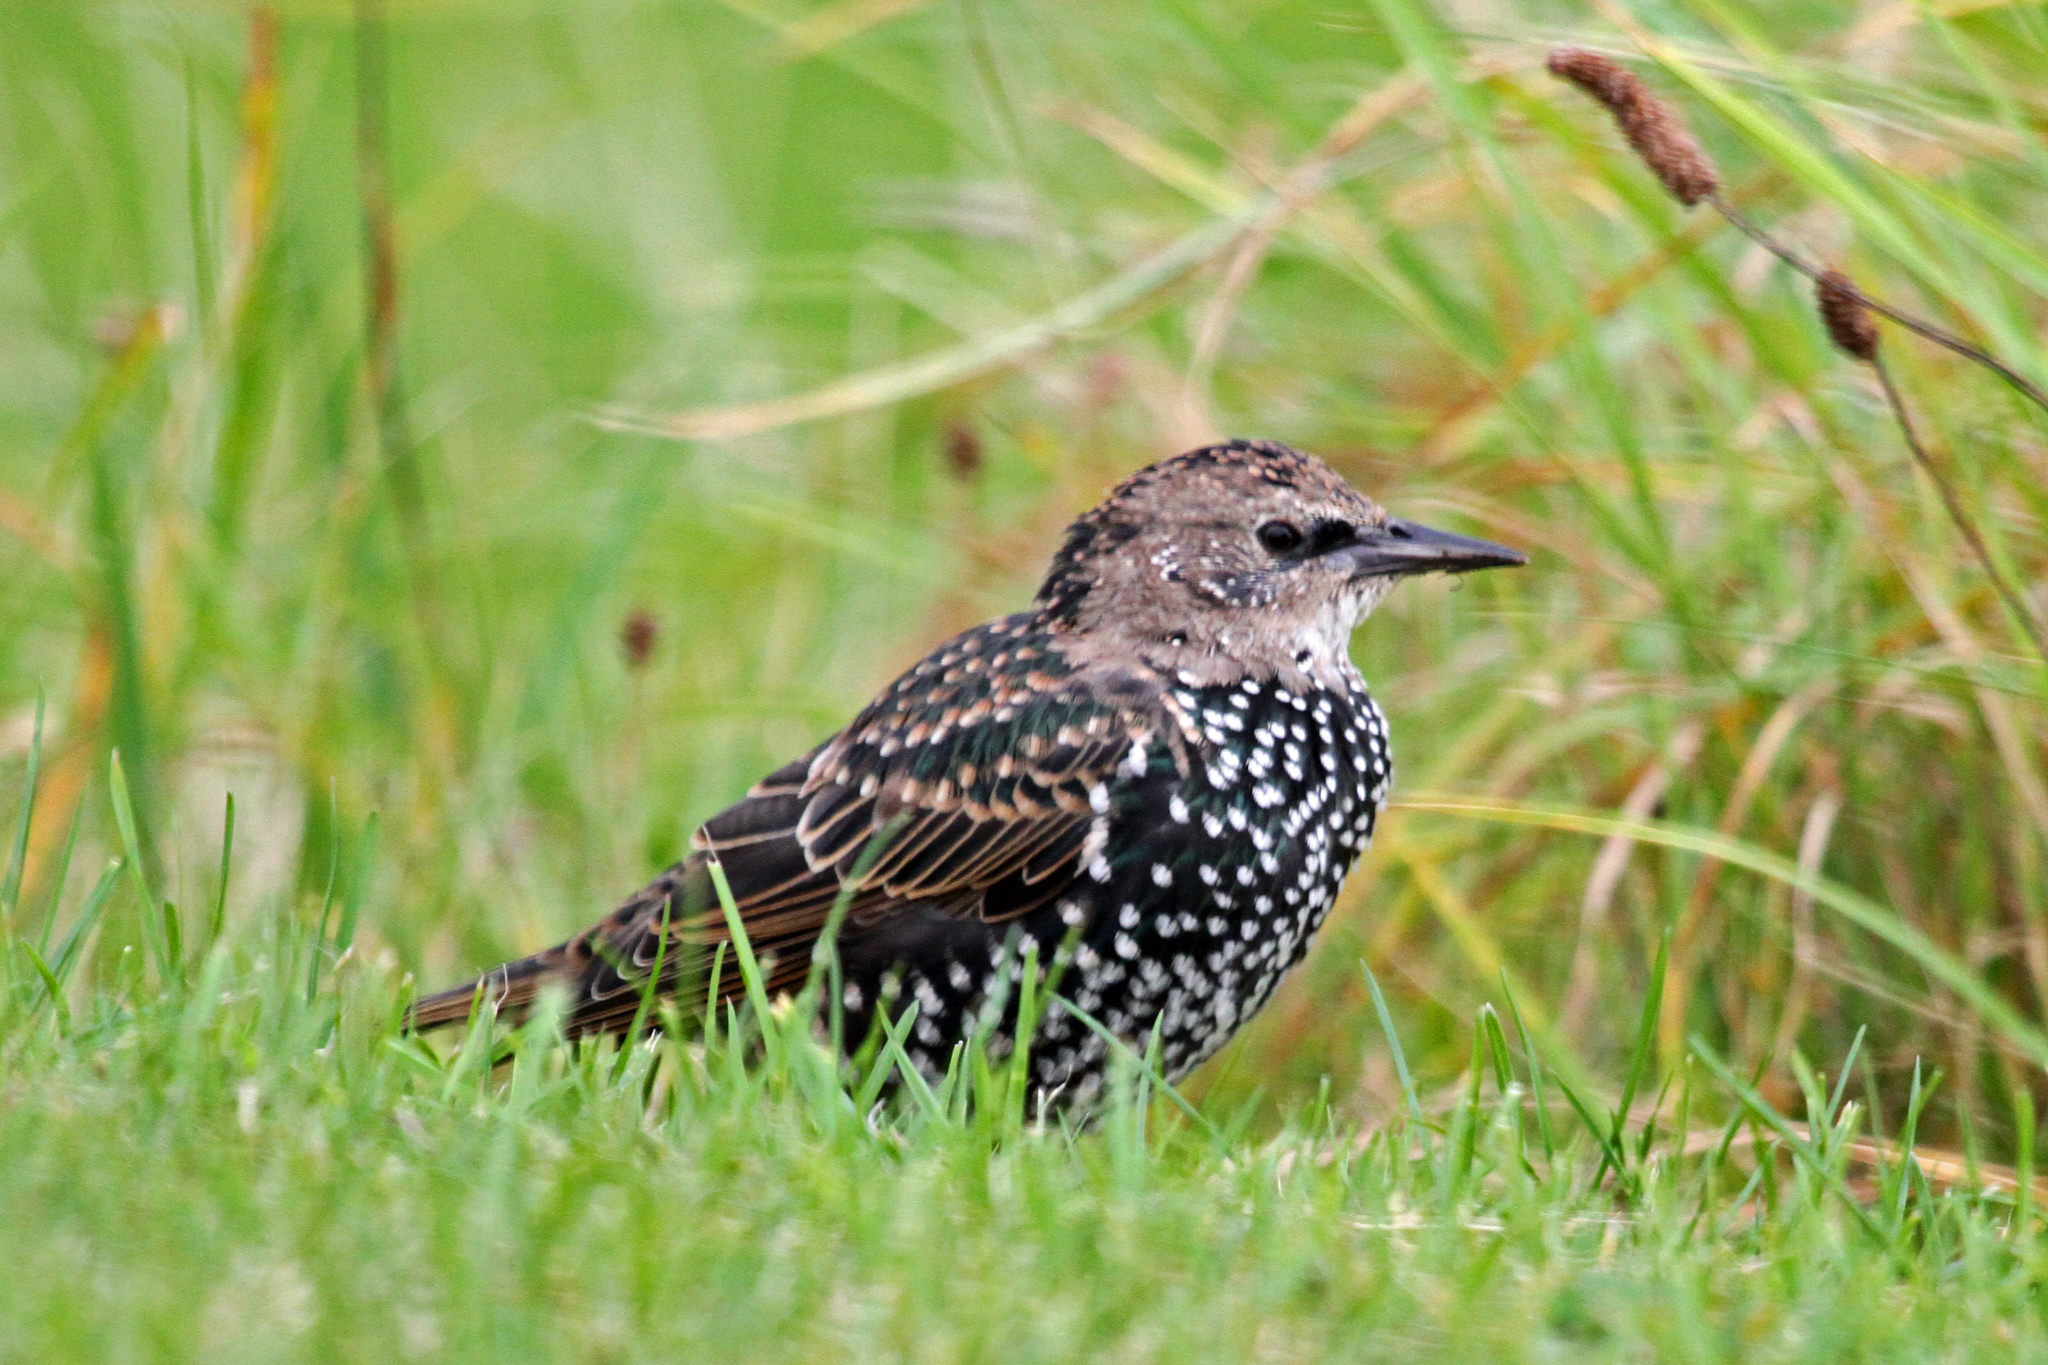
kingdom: Animalia
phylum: Chordata
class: Aves
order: Passeriformes
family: Sturnidae
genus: Sturnus
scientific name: Sturnus vulgaris
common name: Common starling
